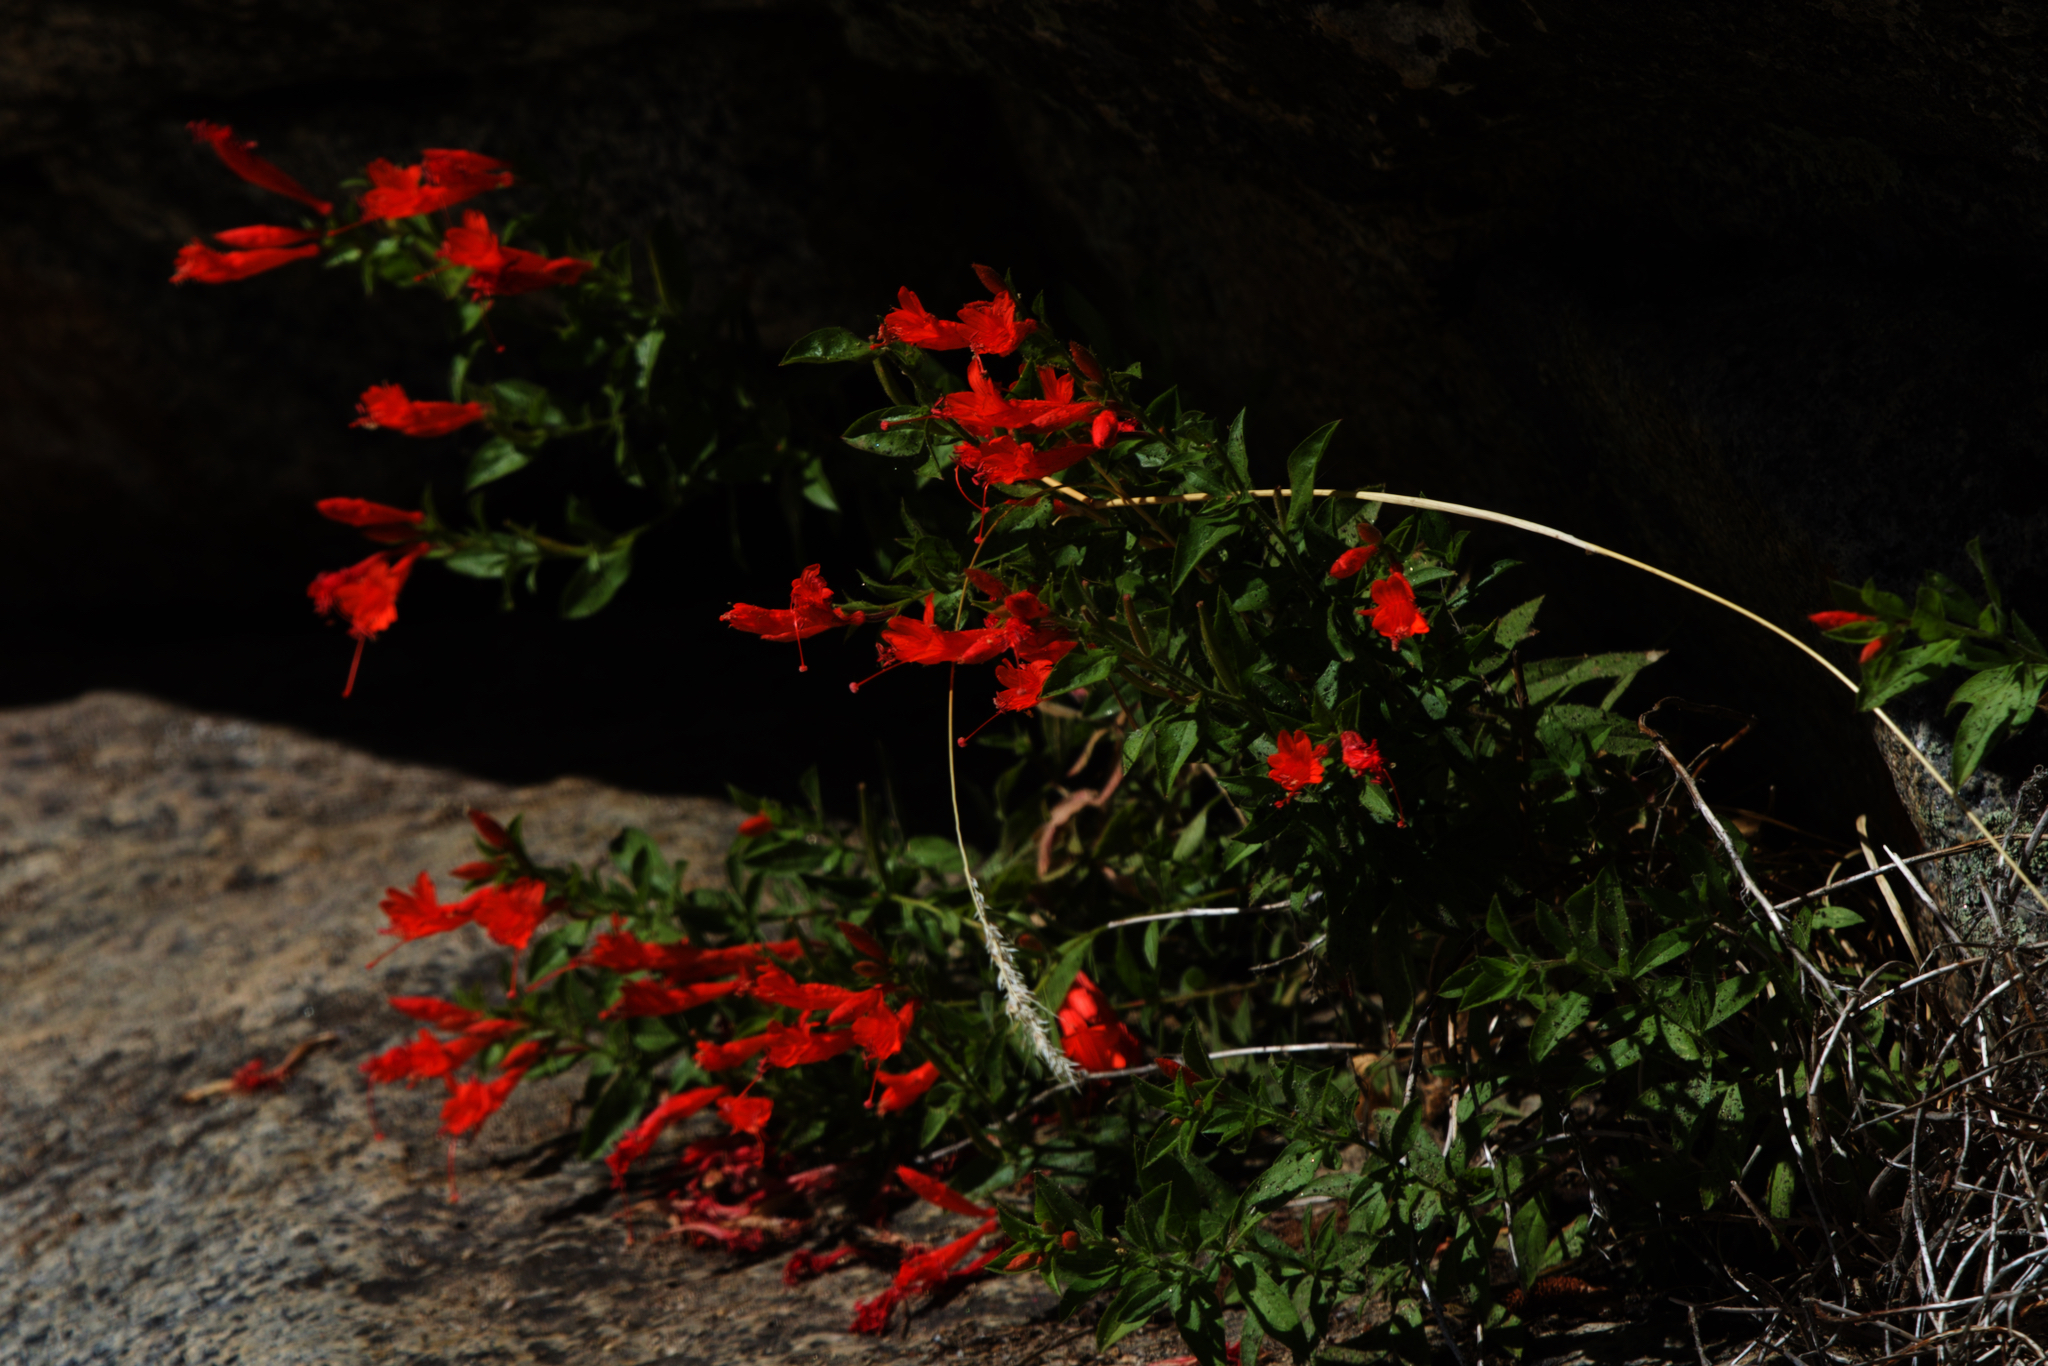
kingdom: Plantae
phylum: Tracheophyta
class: Magnoliopsida
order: Myrtales
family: Onagraceae
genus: Epilobium
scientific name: Epilobium canum
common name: California-fuchsia
